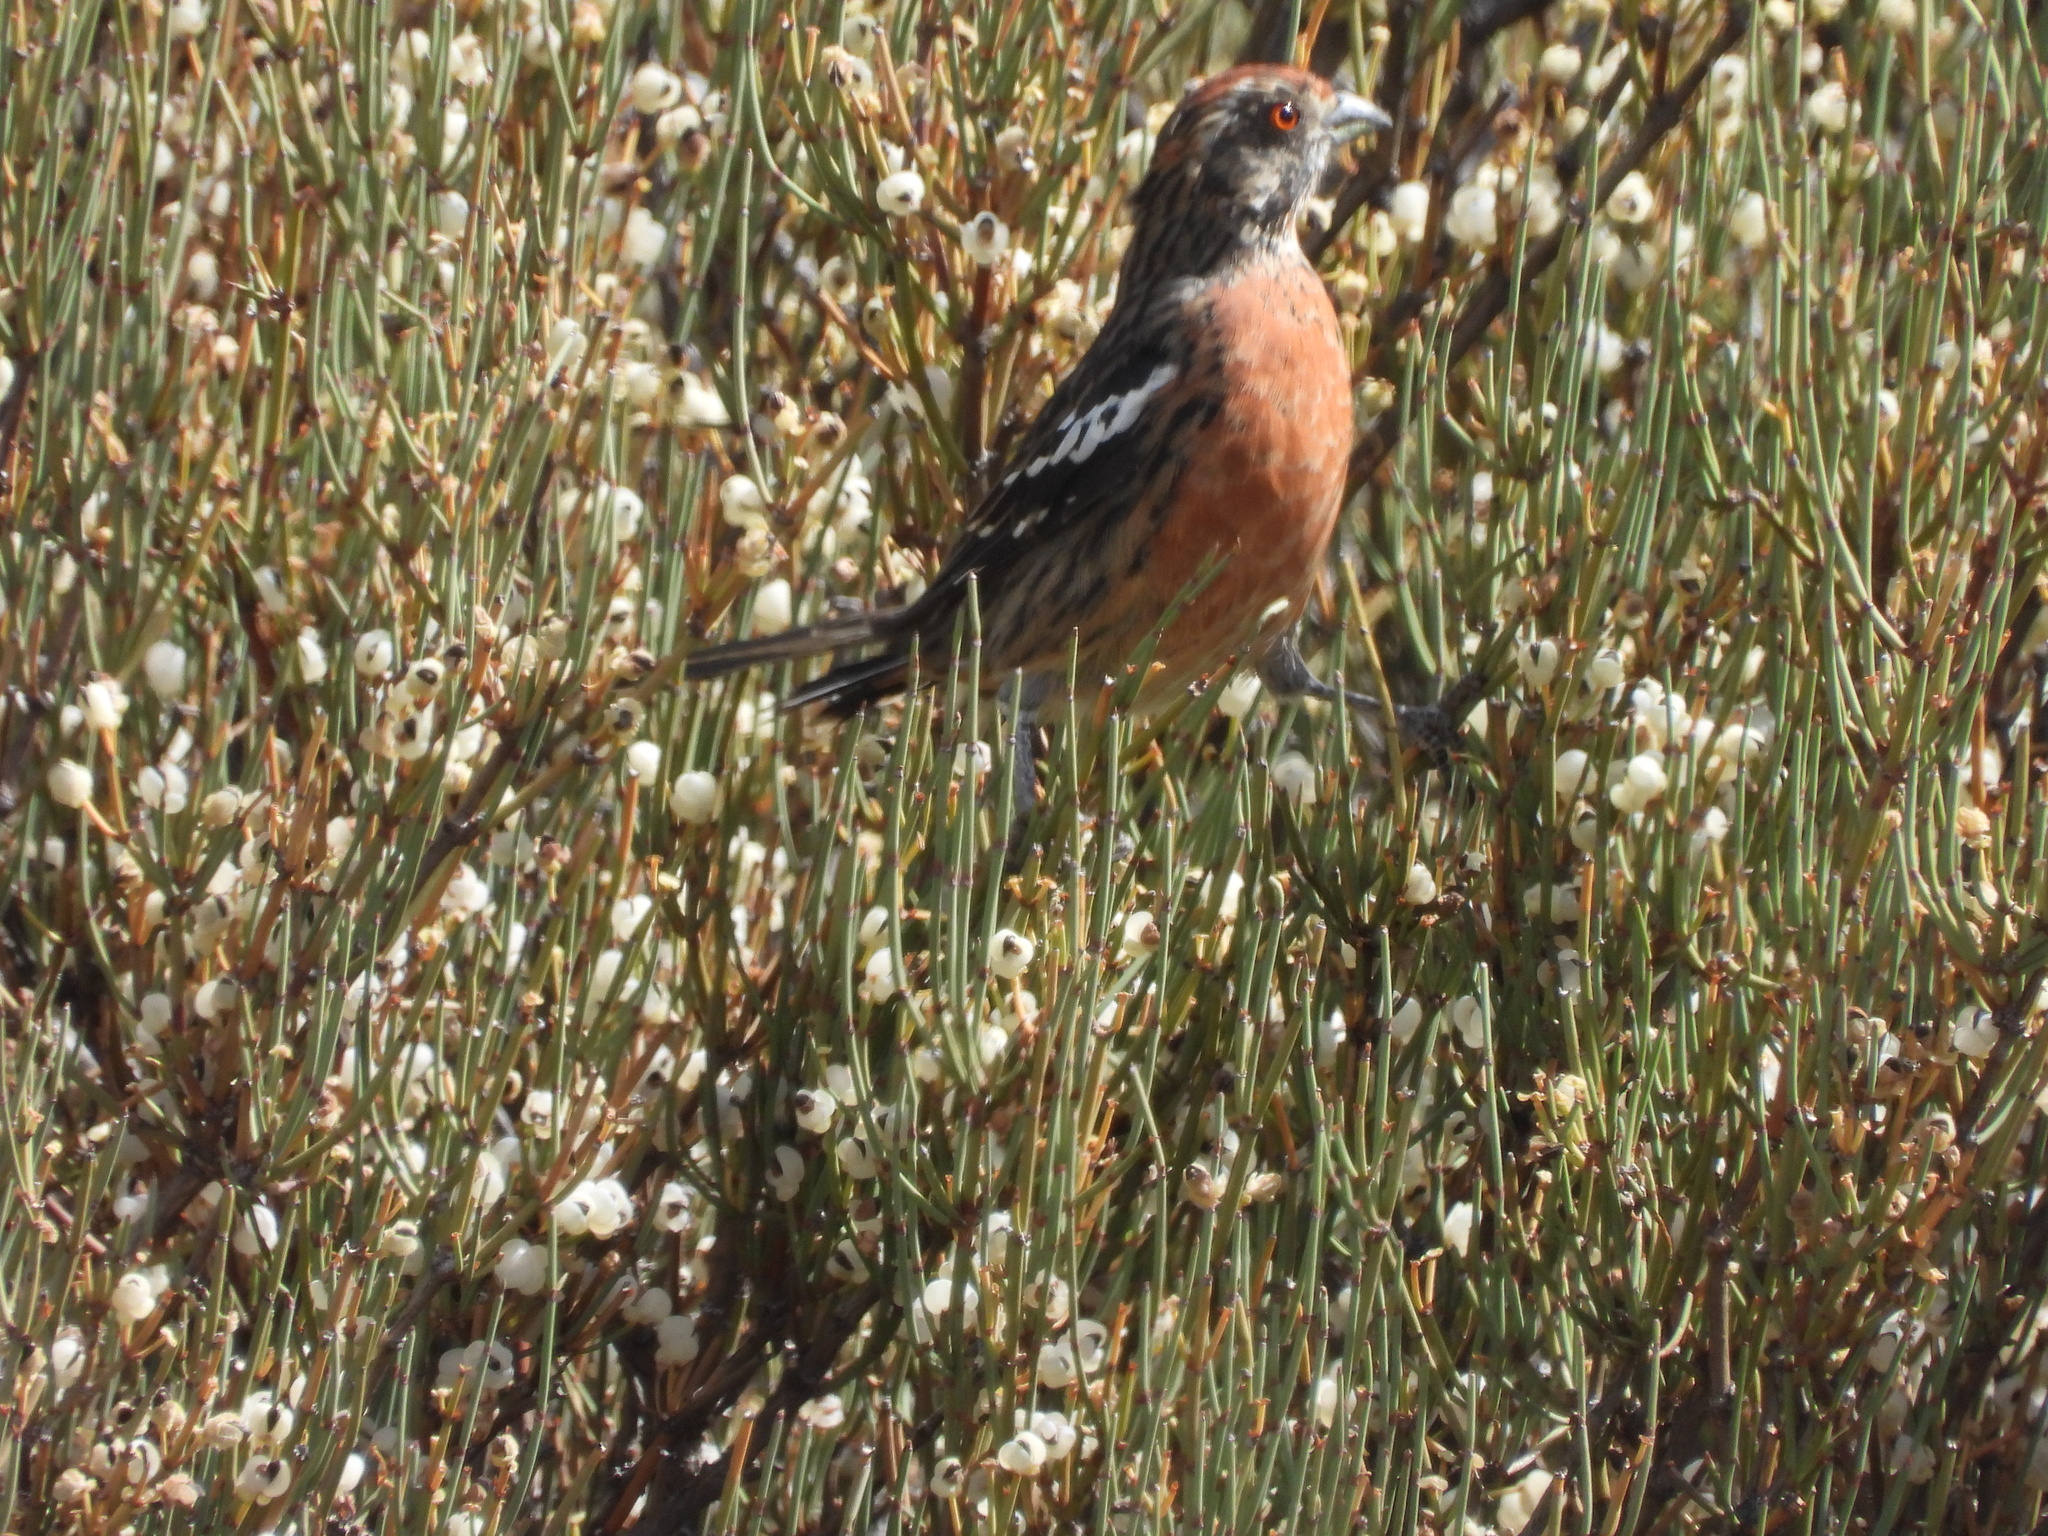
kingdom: Animalia
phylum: Chordata
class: Aves
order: Passeriformes
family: Cotingidae
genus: Phytotoma
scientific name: Phytotoma rara
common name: Rufous-tailed plantcutter
